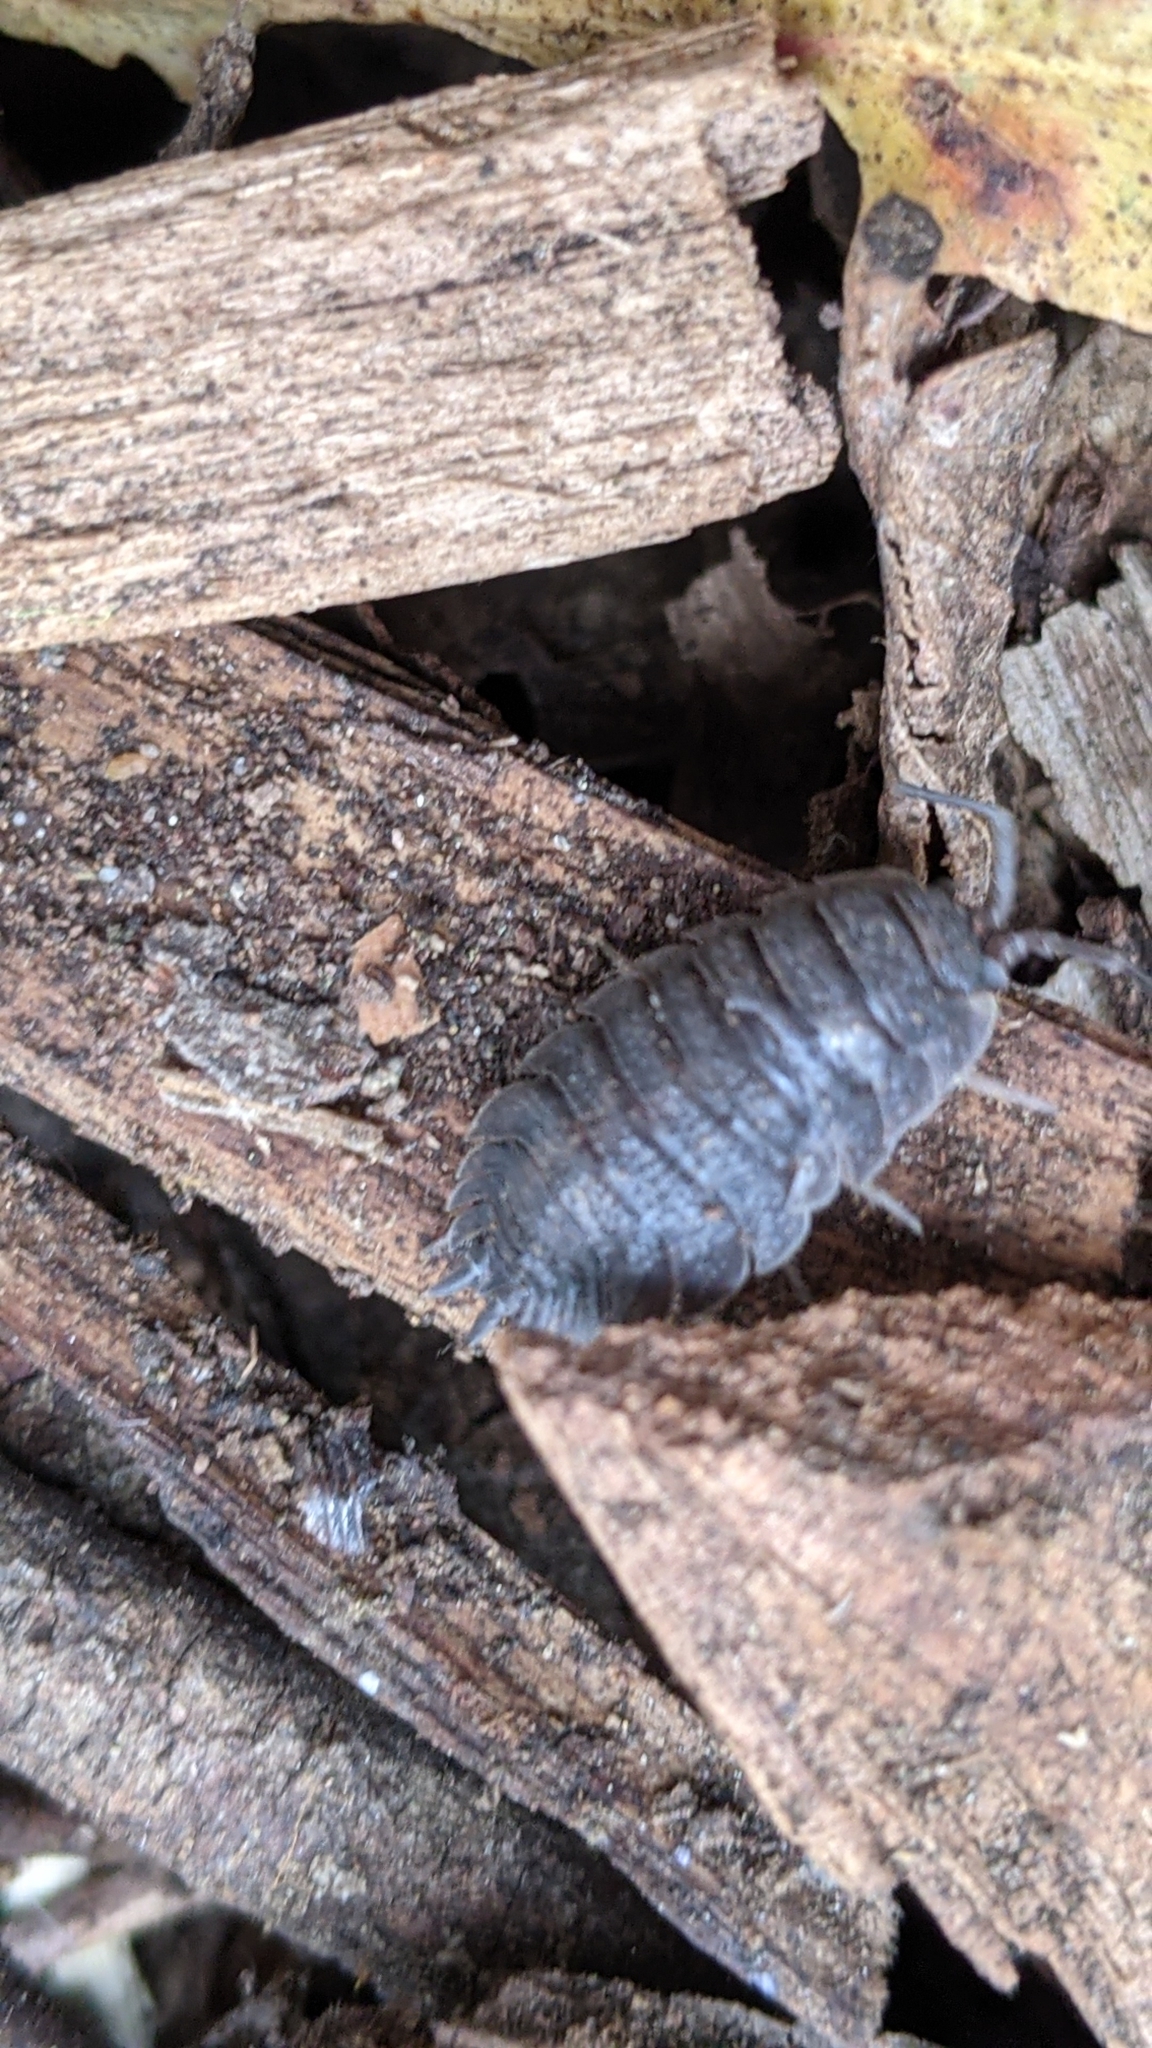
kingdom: Animalia
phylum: Arthropoda
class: Malacostraca
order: Isopoda
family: Porcellionidae
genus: Porcellio
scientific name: Porcellio scaber
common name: Common rough woodlouse
